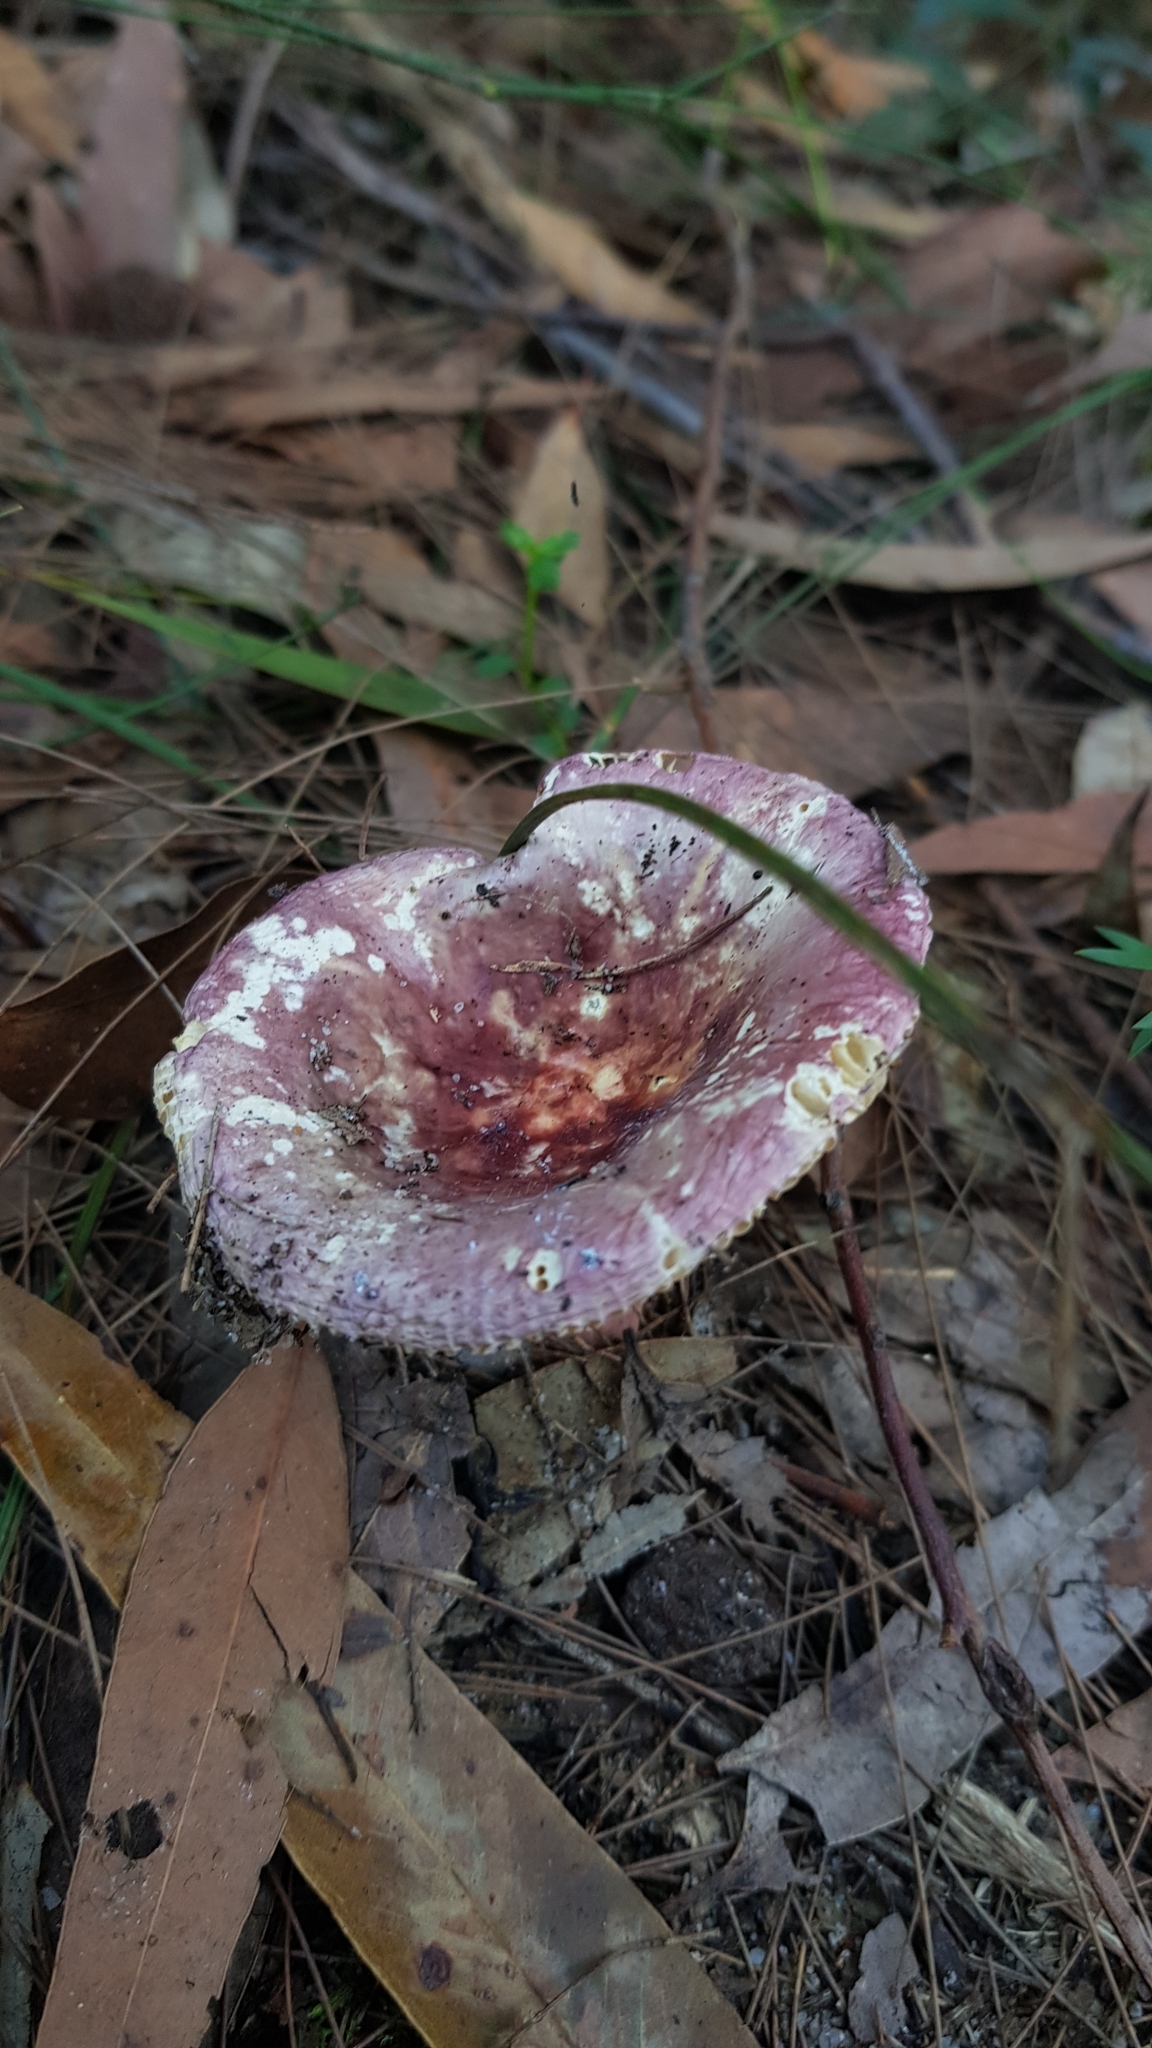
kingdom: Fungi
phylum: Basidiomycota
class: Agaricomycetes
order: Russulales
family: Russulaceae
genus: Russula
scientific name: Russula lenkunya
